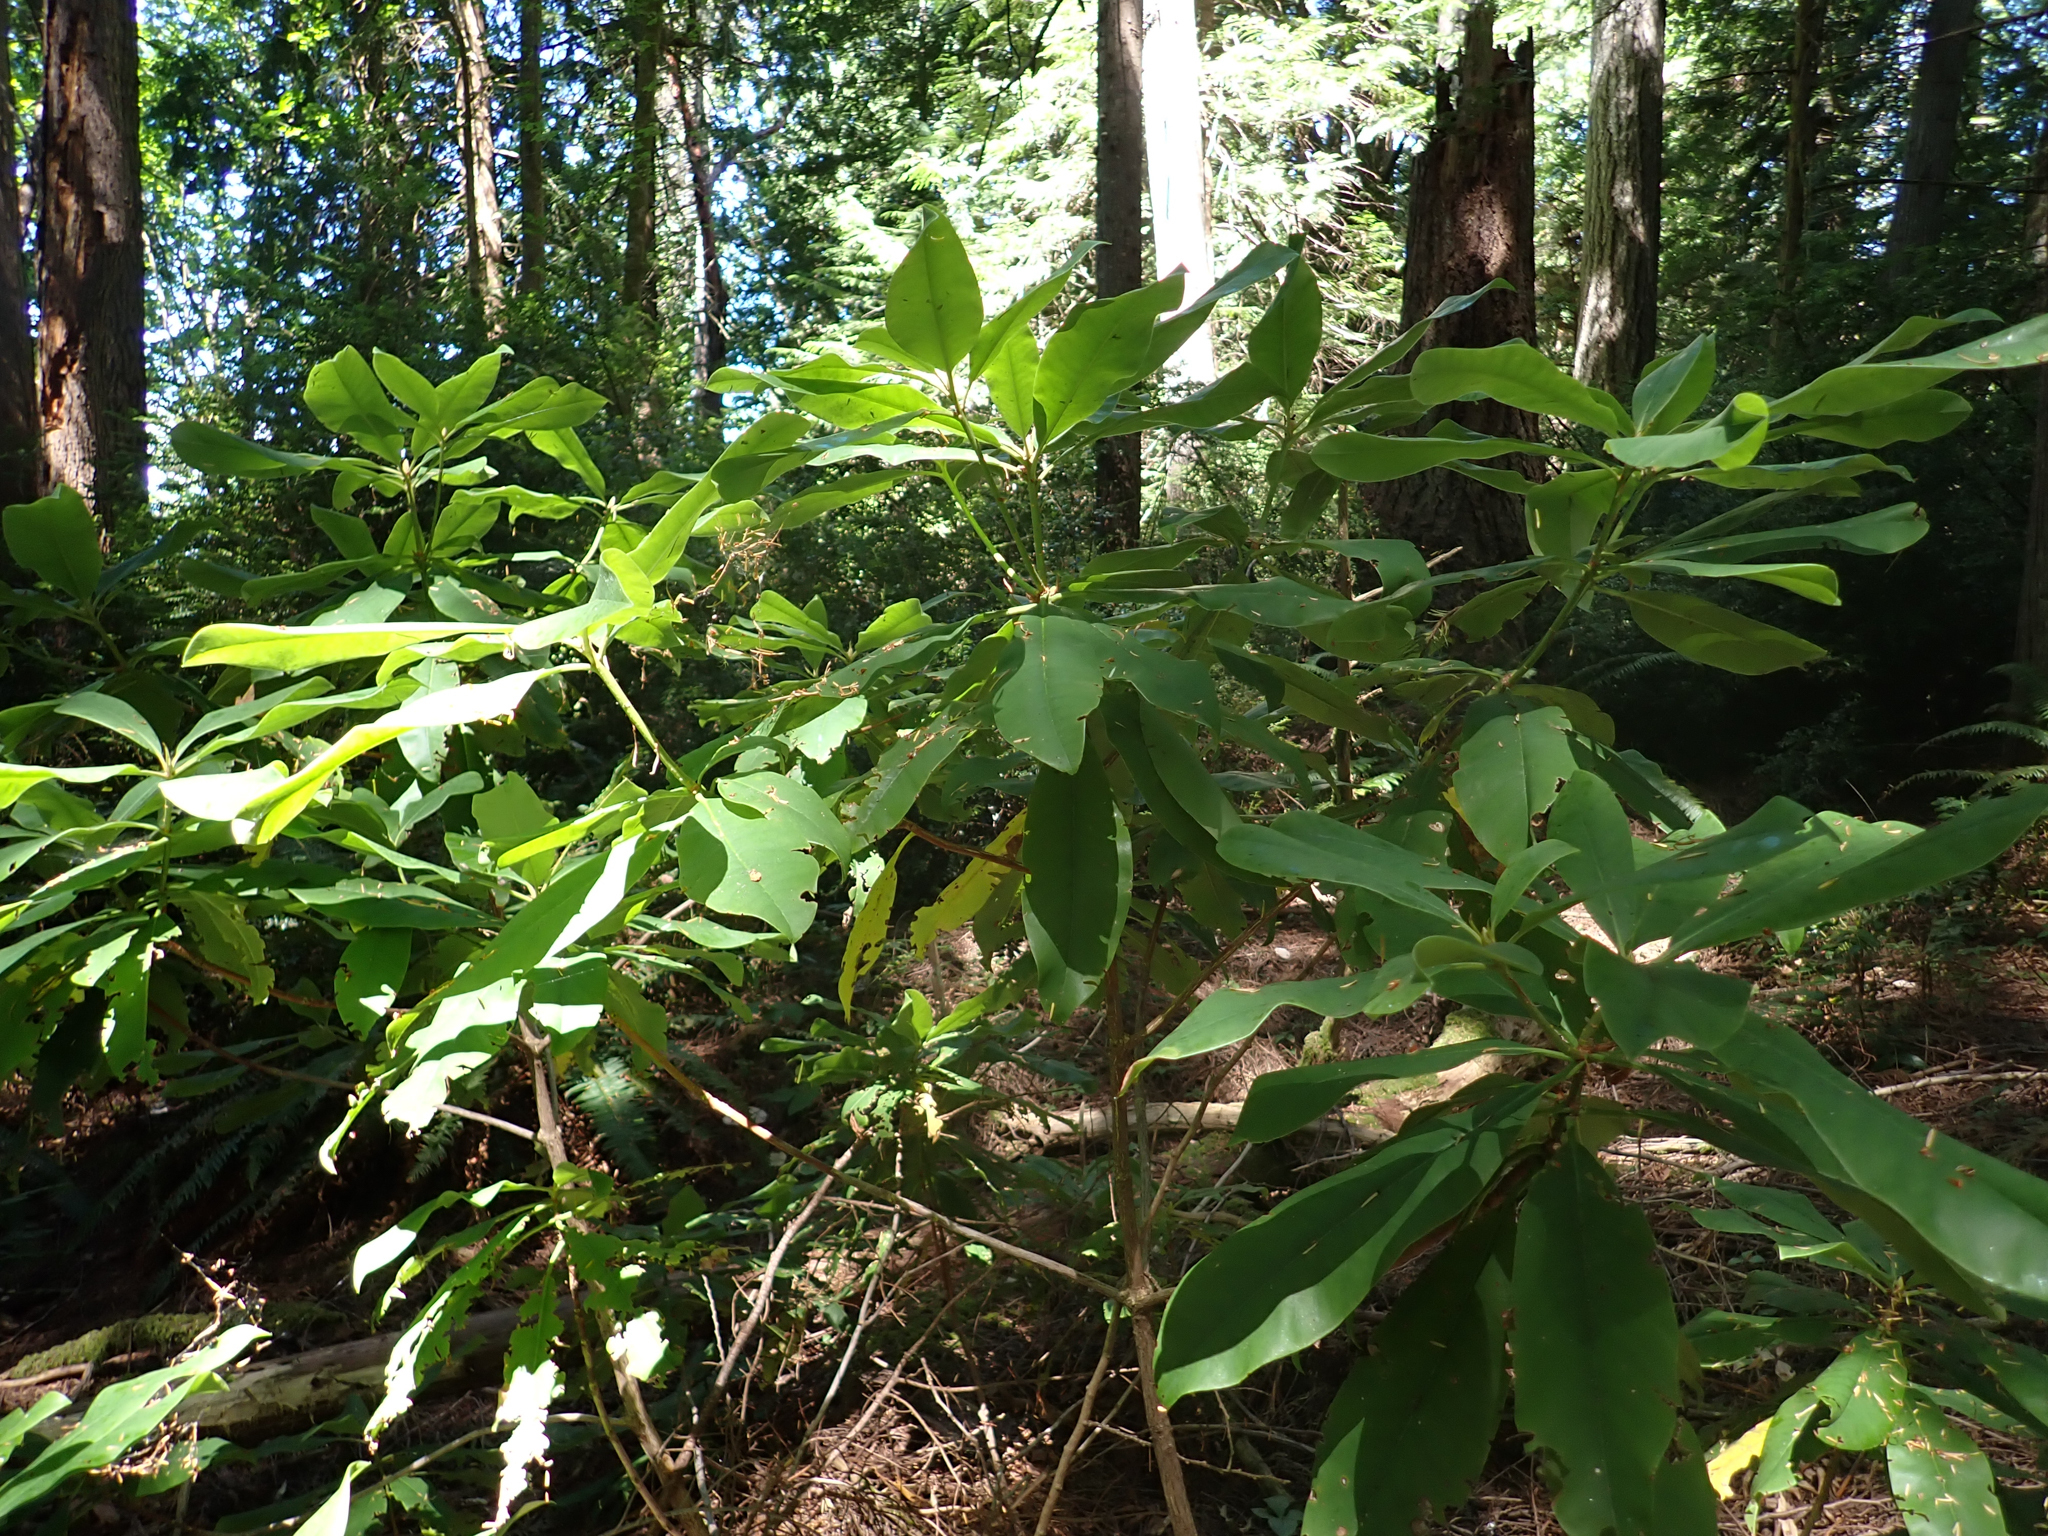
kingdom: Plantae
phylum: Tracheophyta
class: Magnoliopsida
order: Ericales
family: Ericaceae
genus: Rhododendron
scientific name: Rhododendron macrophyllum
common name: California rose bay
